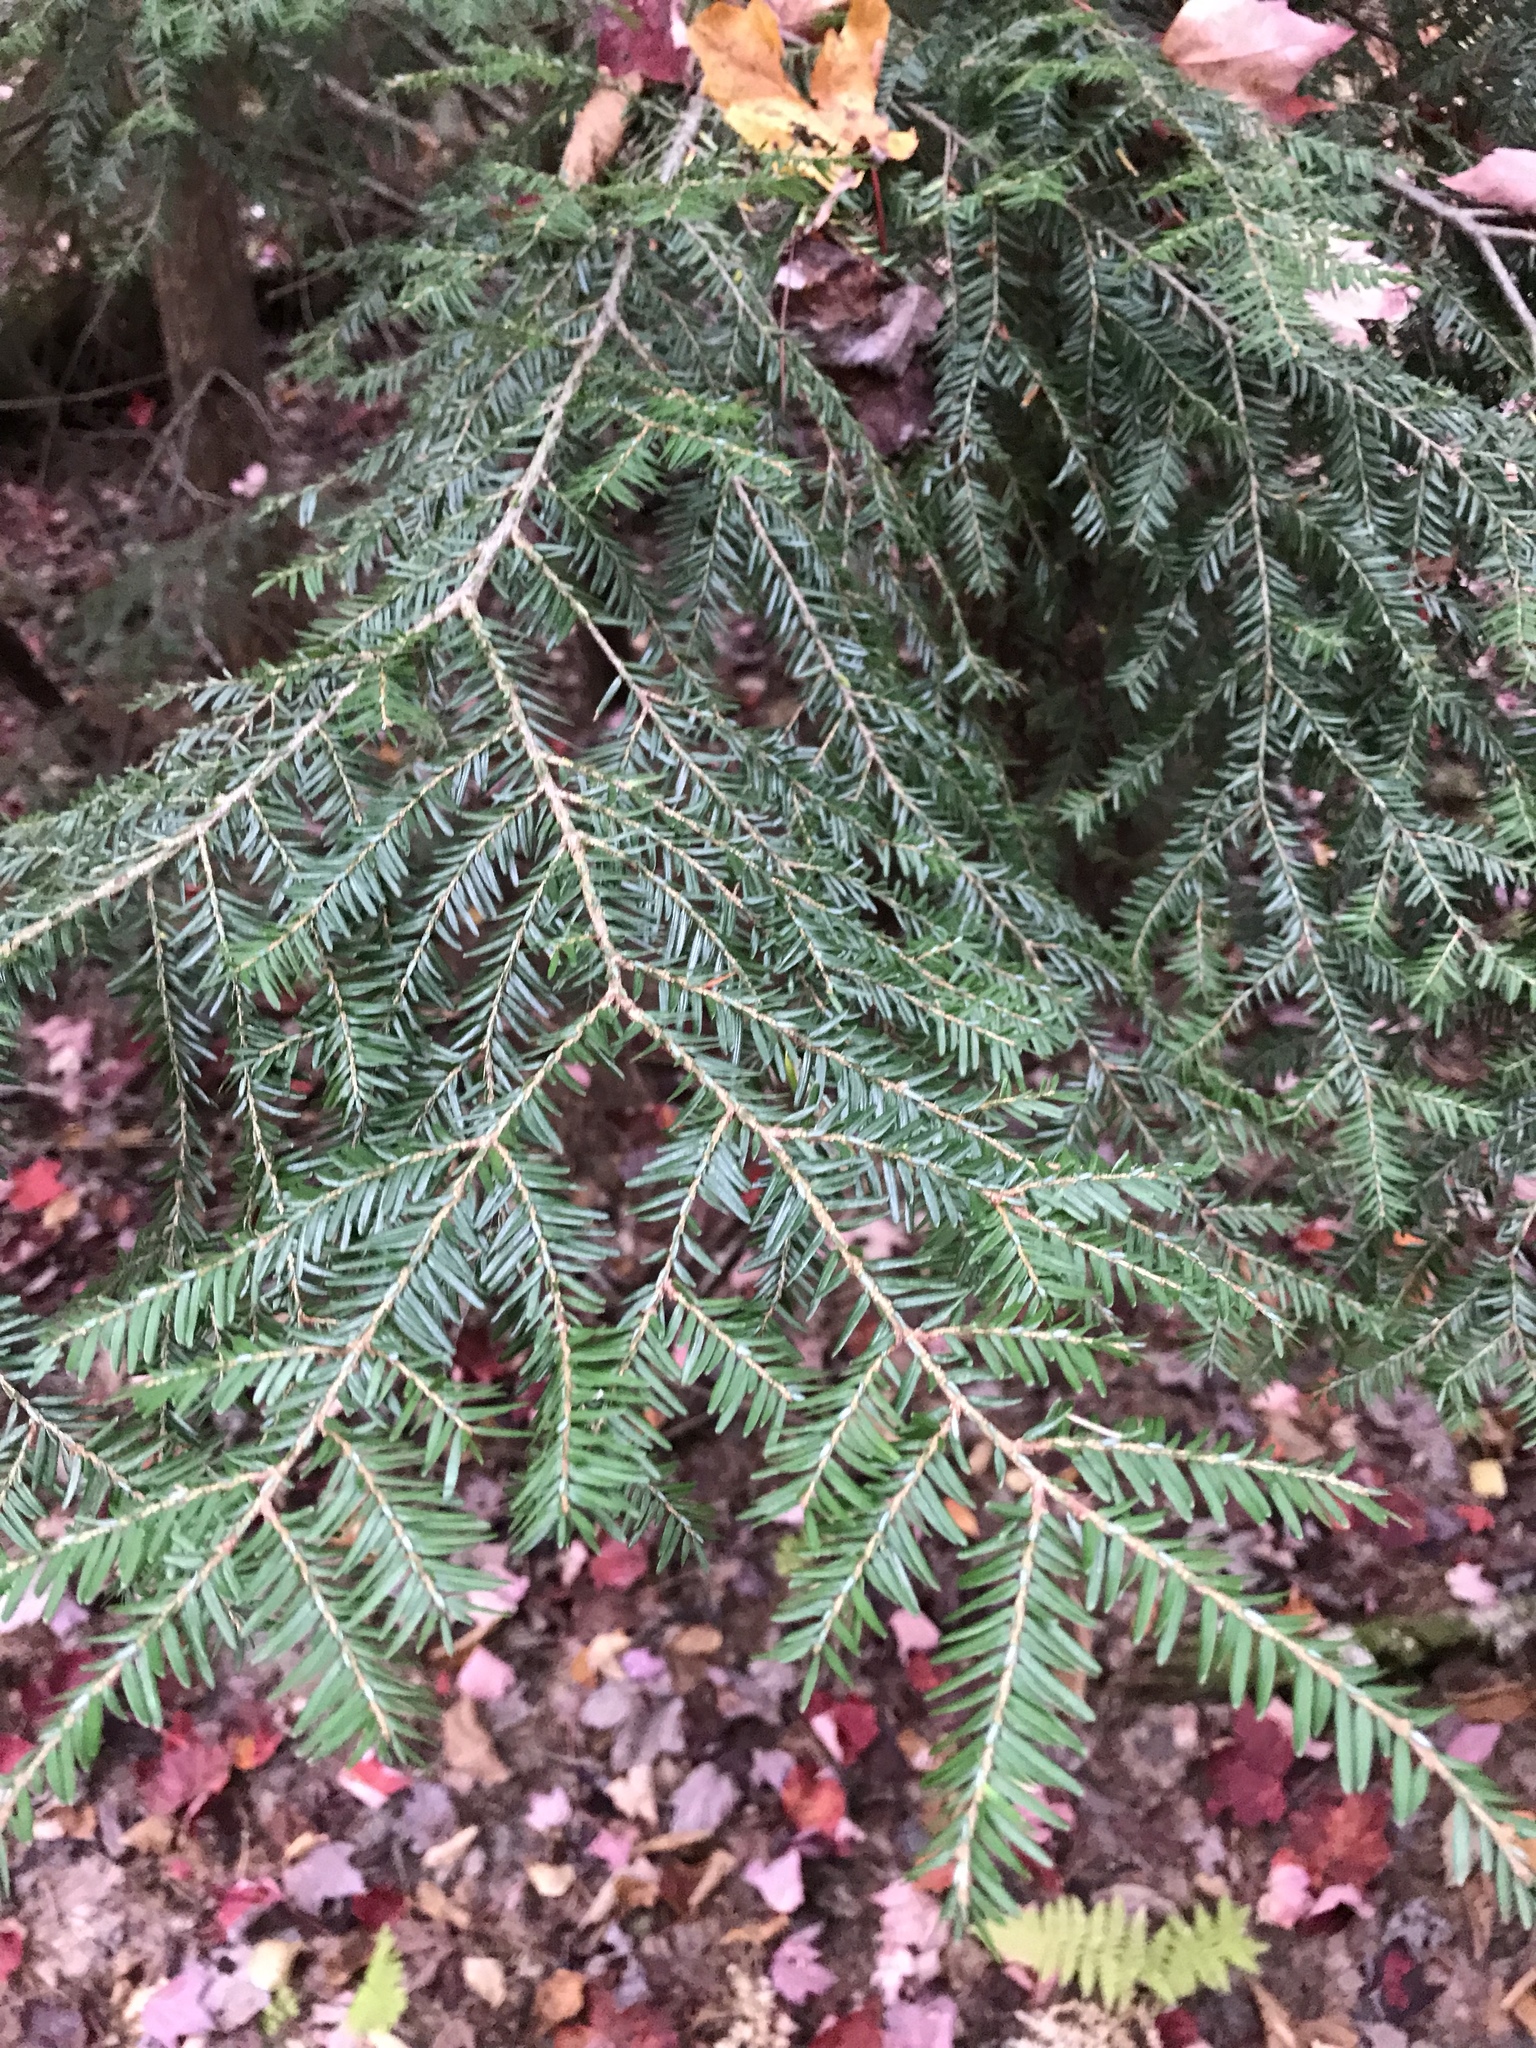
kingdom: Plantae
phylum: Tracheophyta
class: Pinopsida
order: Pinales
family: Pinaceae
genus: Tsuga
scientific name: Tsuga canadensis
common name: Eastern hemlock
